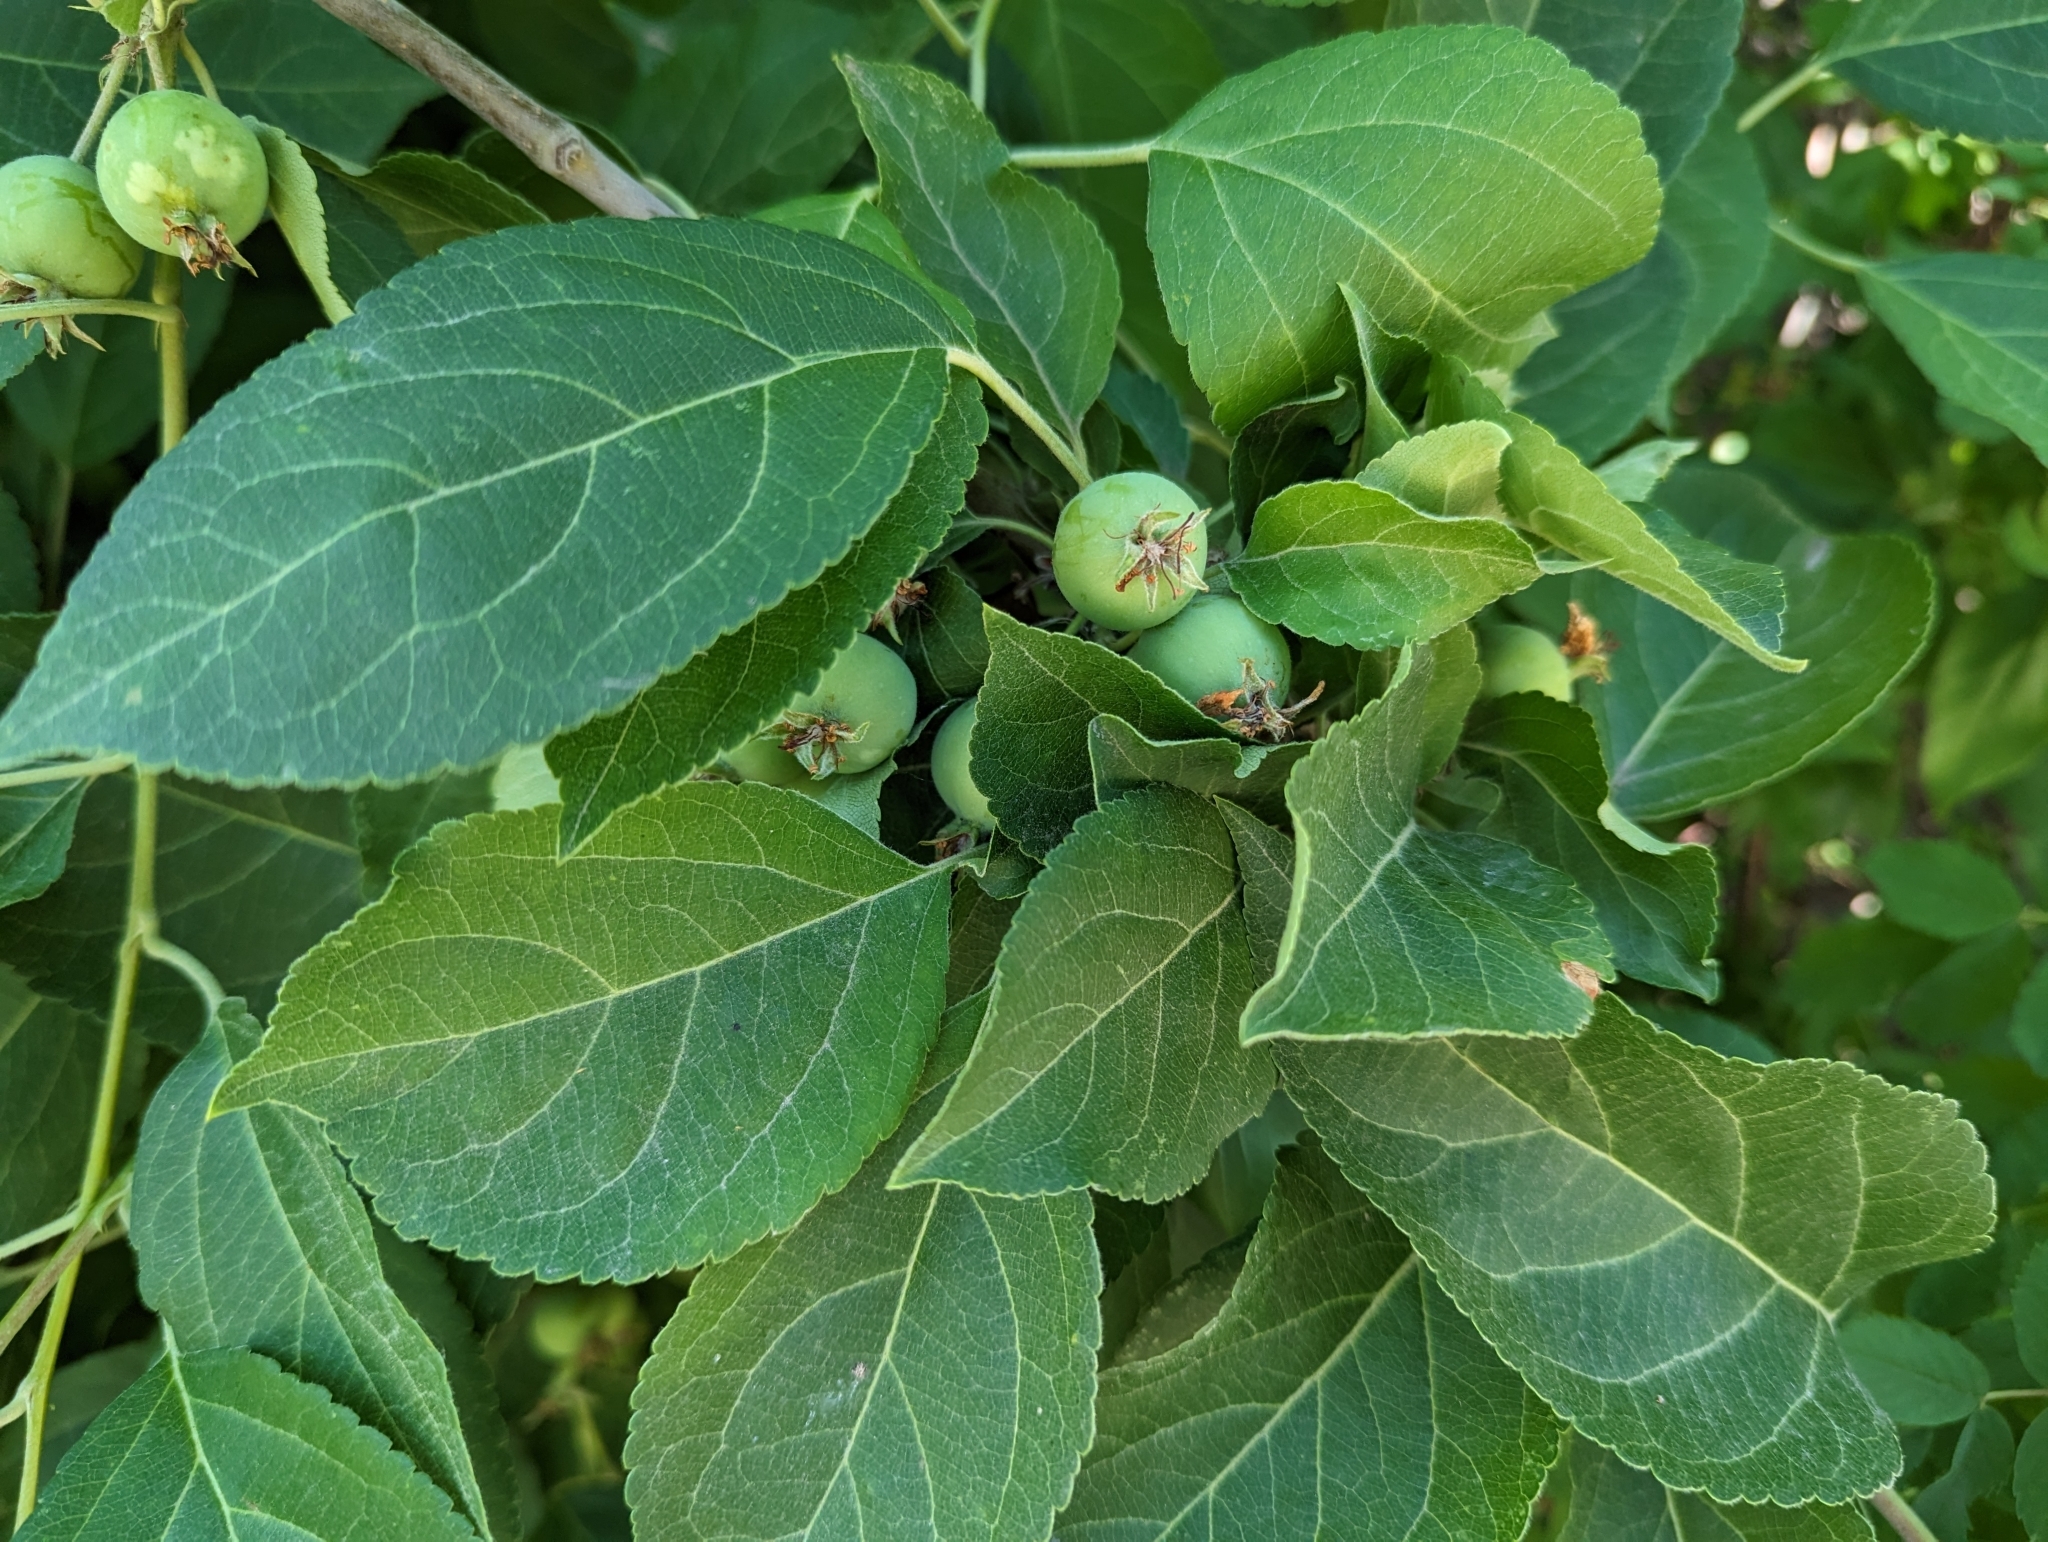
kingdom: Plantae
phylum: Tracheophyta
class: Magnoliopsida
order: Rosales
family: Rosaceae
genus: Malus
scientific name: Malus domestica
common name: Apple
